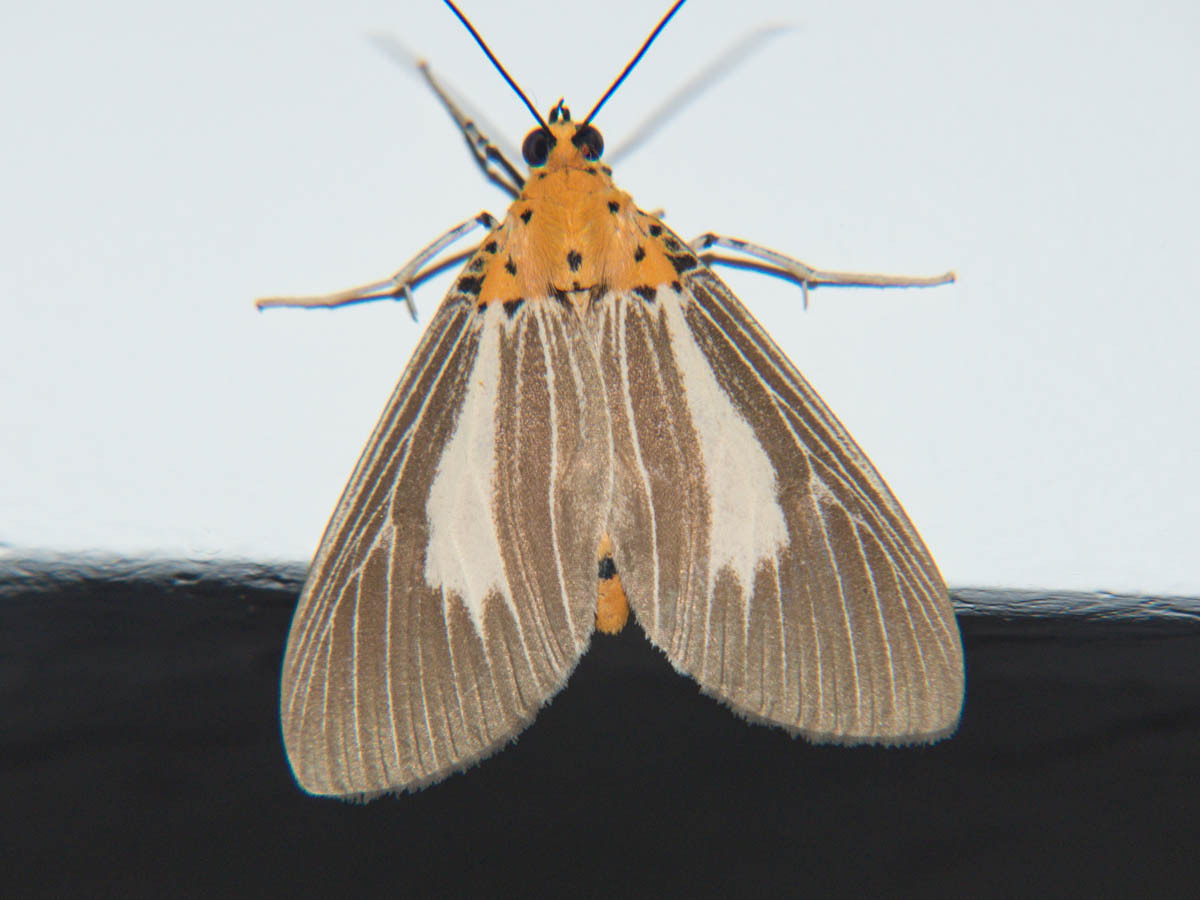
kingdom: Animalia
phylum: Arthropoda
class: Insecta
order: Lepidoptera
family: Erebidae
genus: Asota
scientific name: Asota subsimilis
